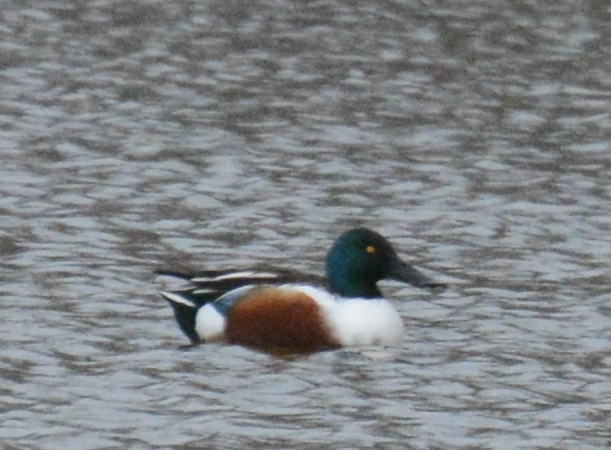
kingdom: Animalia
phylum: Chordata
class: Aves
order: Anseriformes
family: Anatidae
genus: Spatula
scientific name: Spatula clypeata
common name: Northern shoveler
